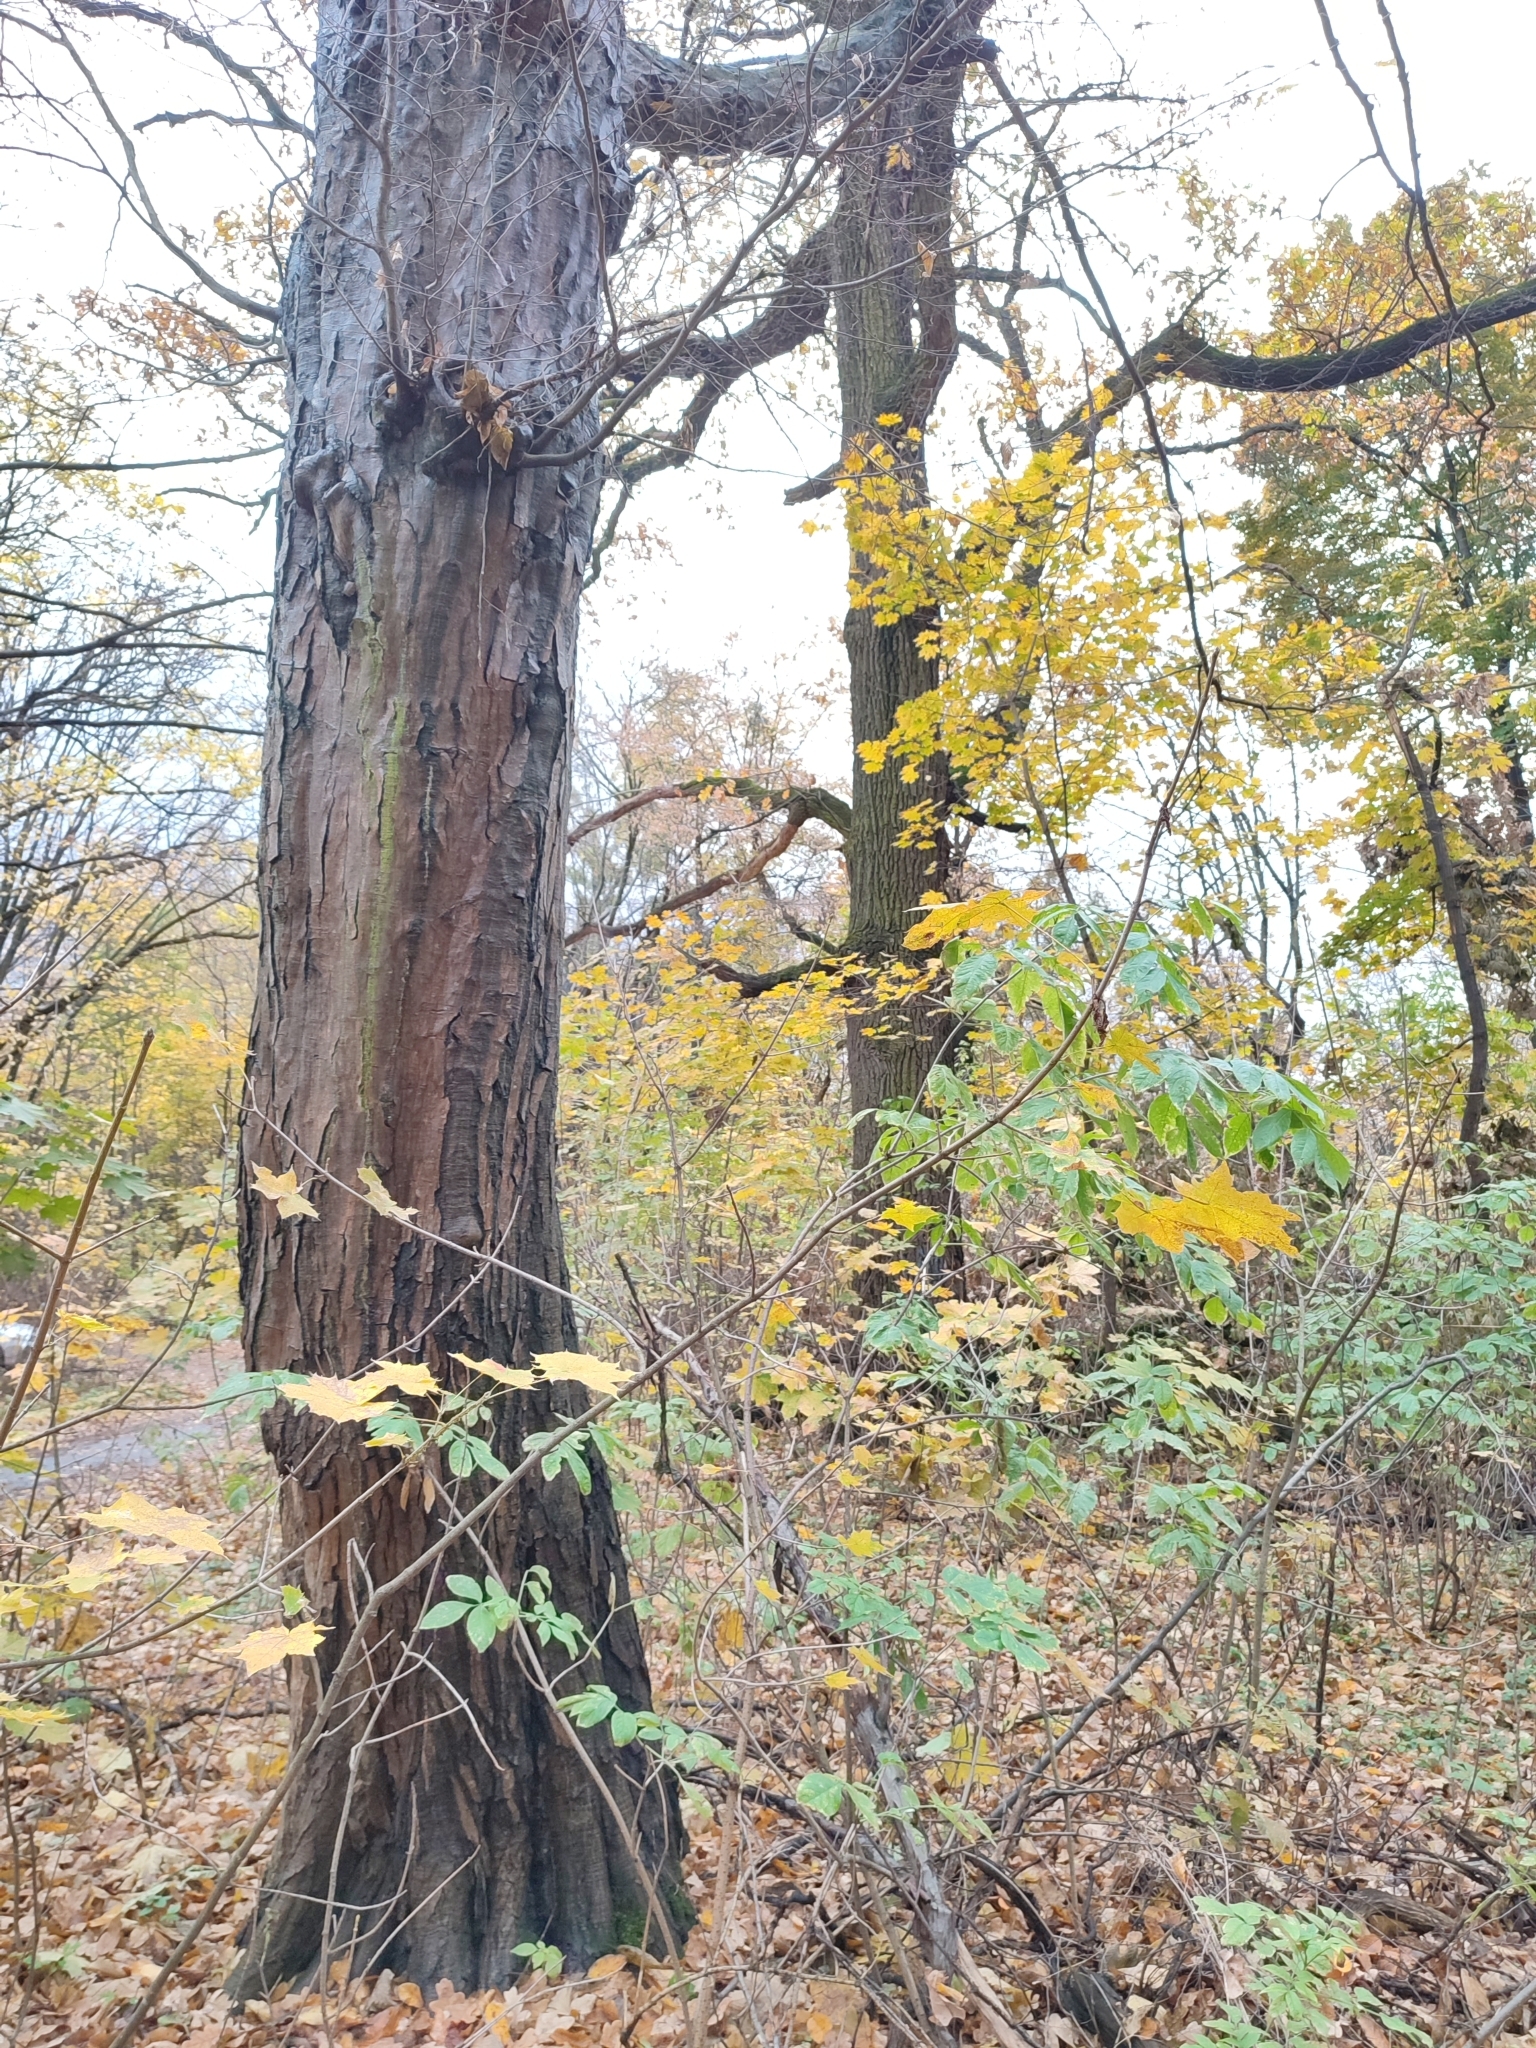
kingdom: Plantae
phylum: Tracheophyta
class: Magnoliopsida
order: Fagales
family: Betulaceae
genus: Carpinus
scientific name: Carpinus betulus
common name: Hornbeam
